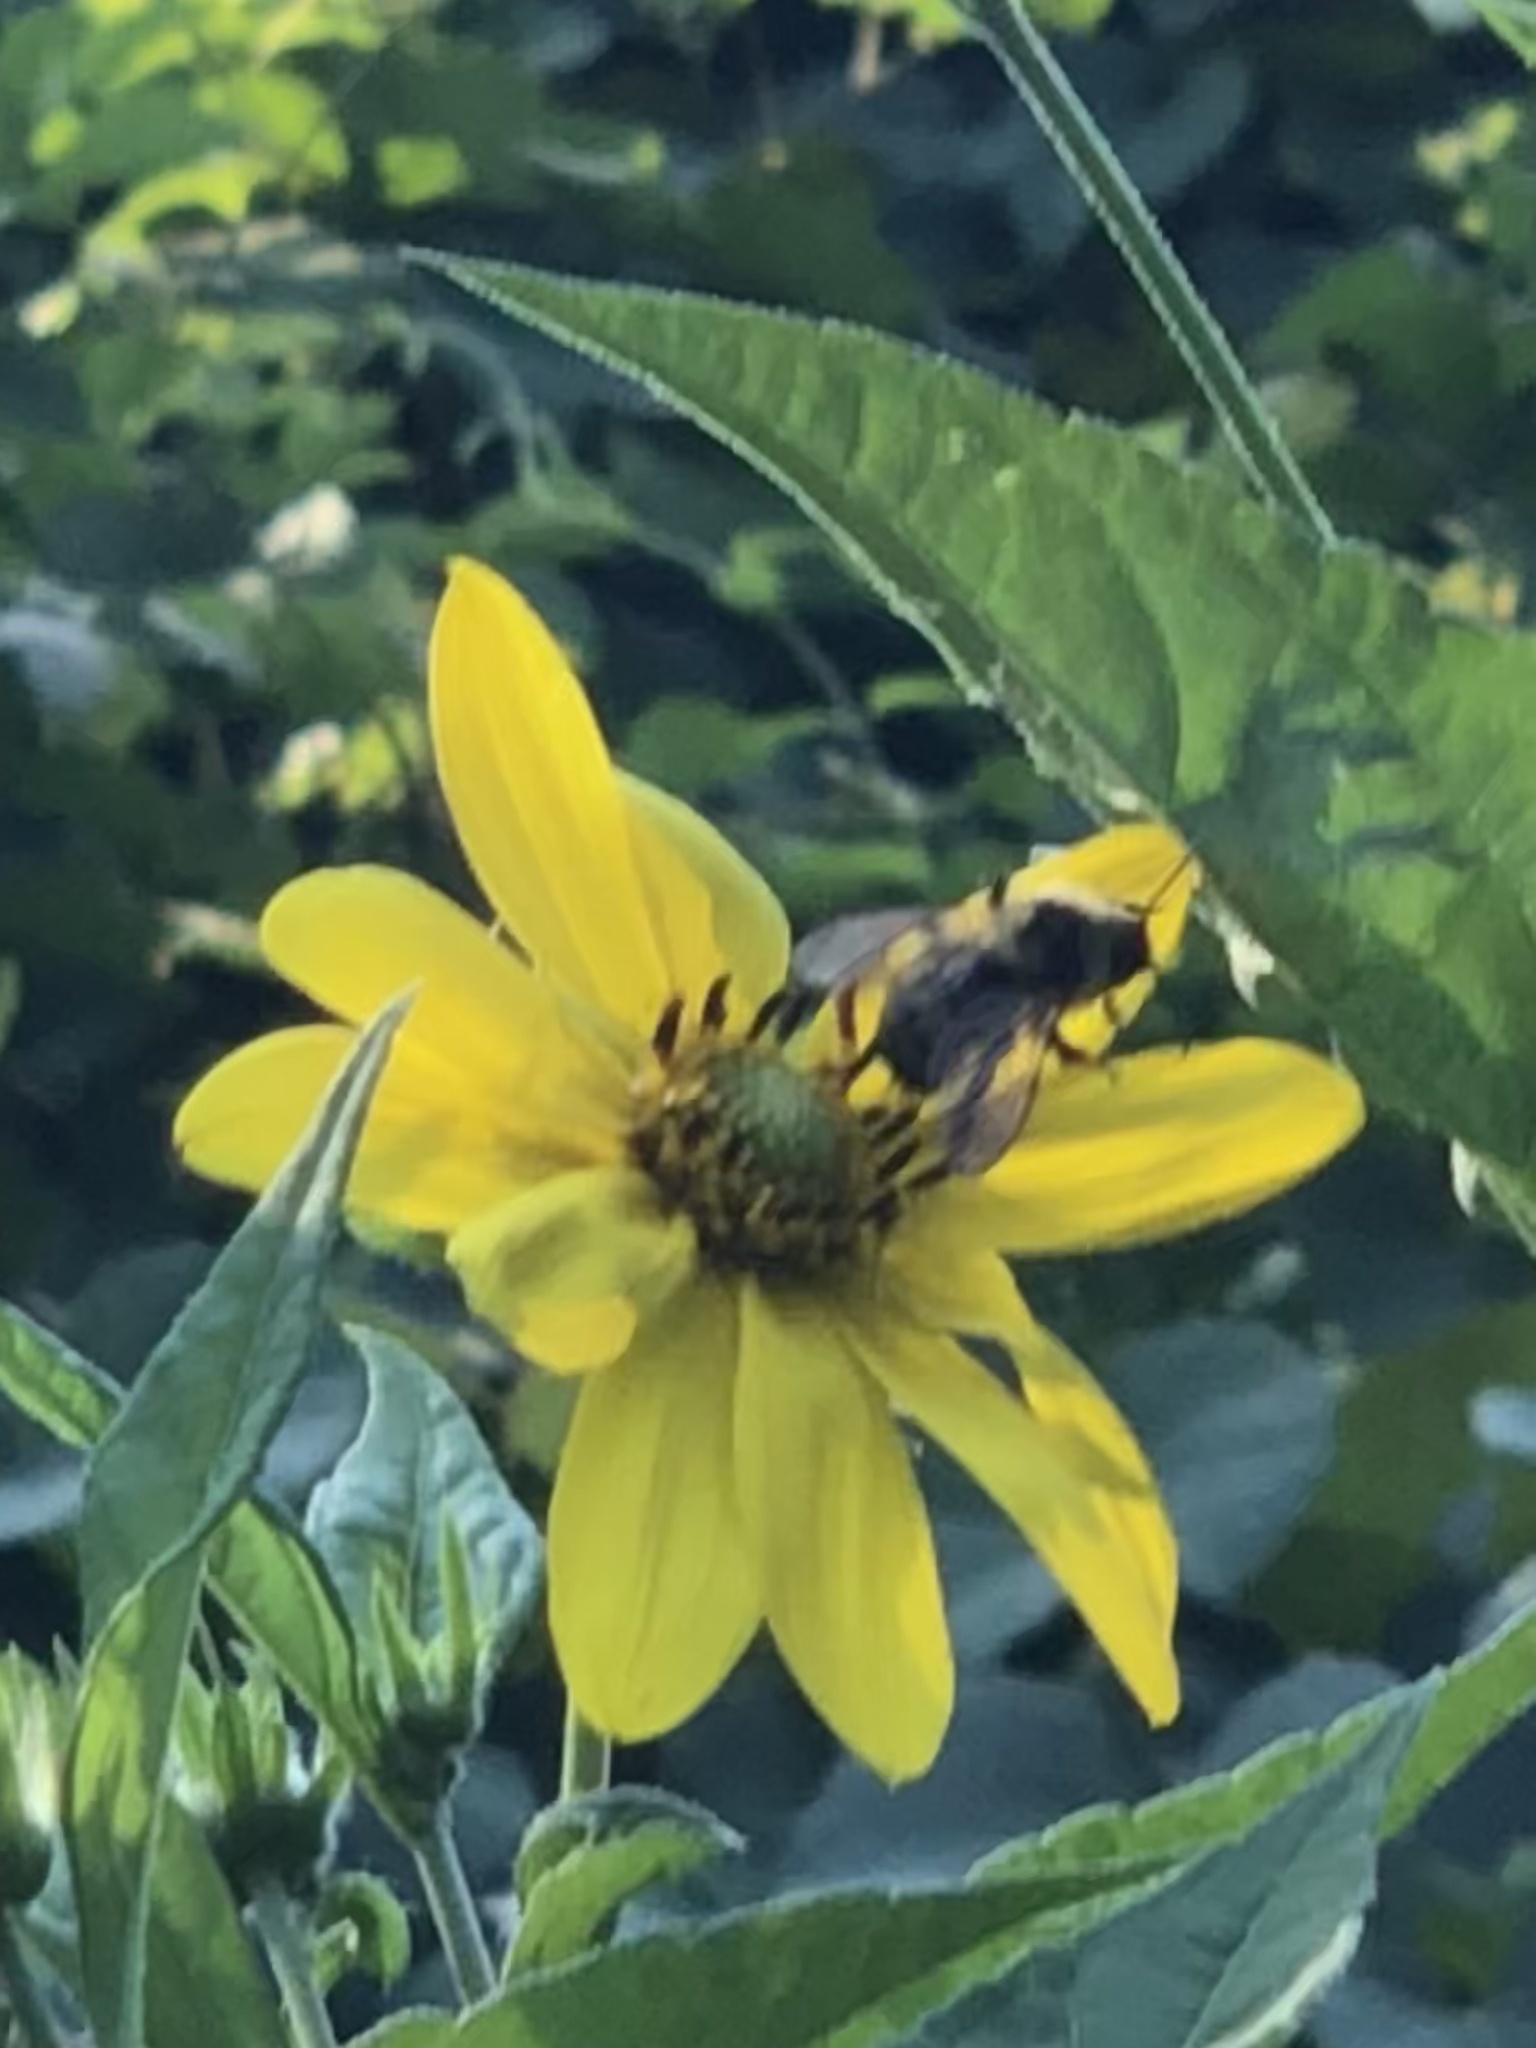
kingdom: Animalia
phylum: Arthropoda
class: Insecta
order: Hymenoptera
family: Apidae
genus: Bombus
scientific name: Bombus citrinus
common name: Lemon cuckoo bumble bee
